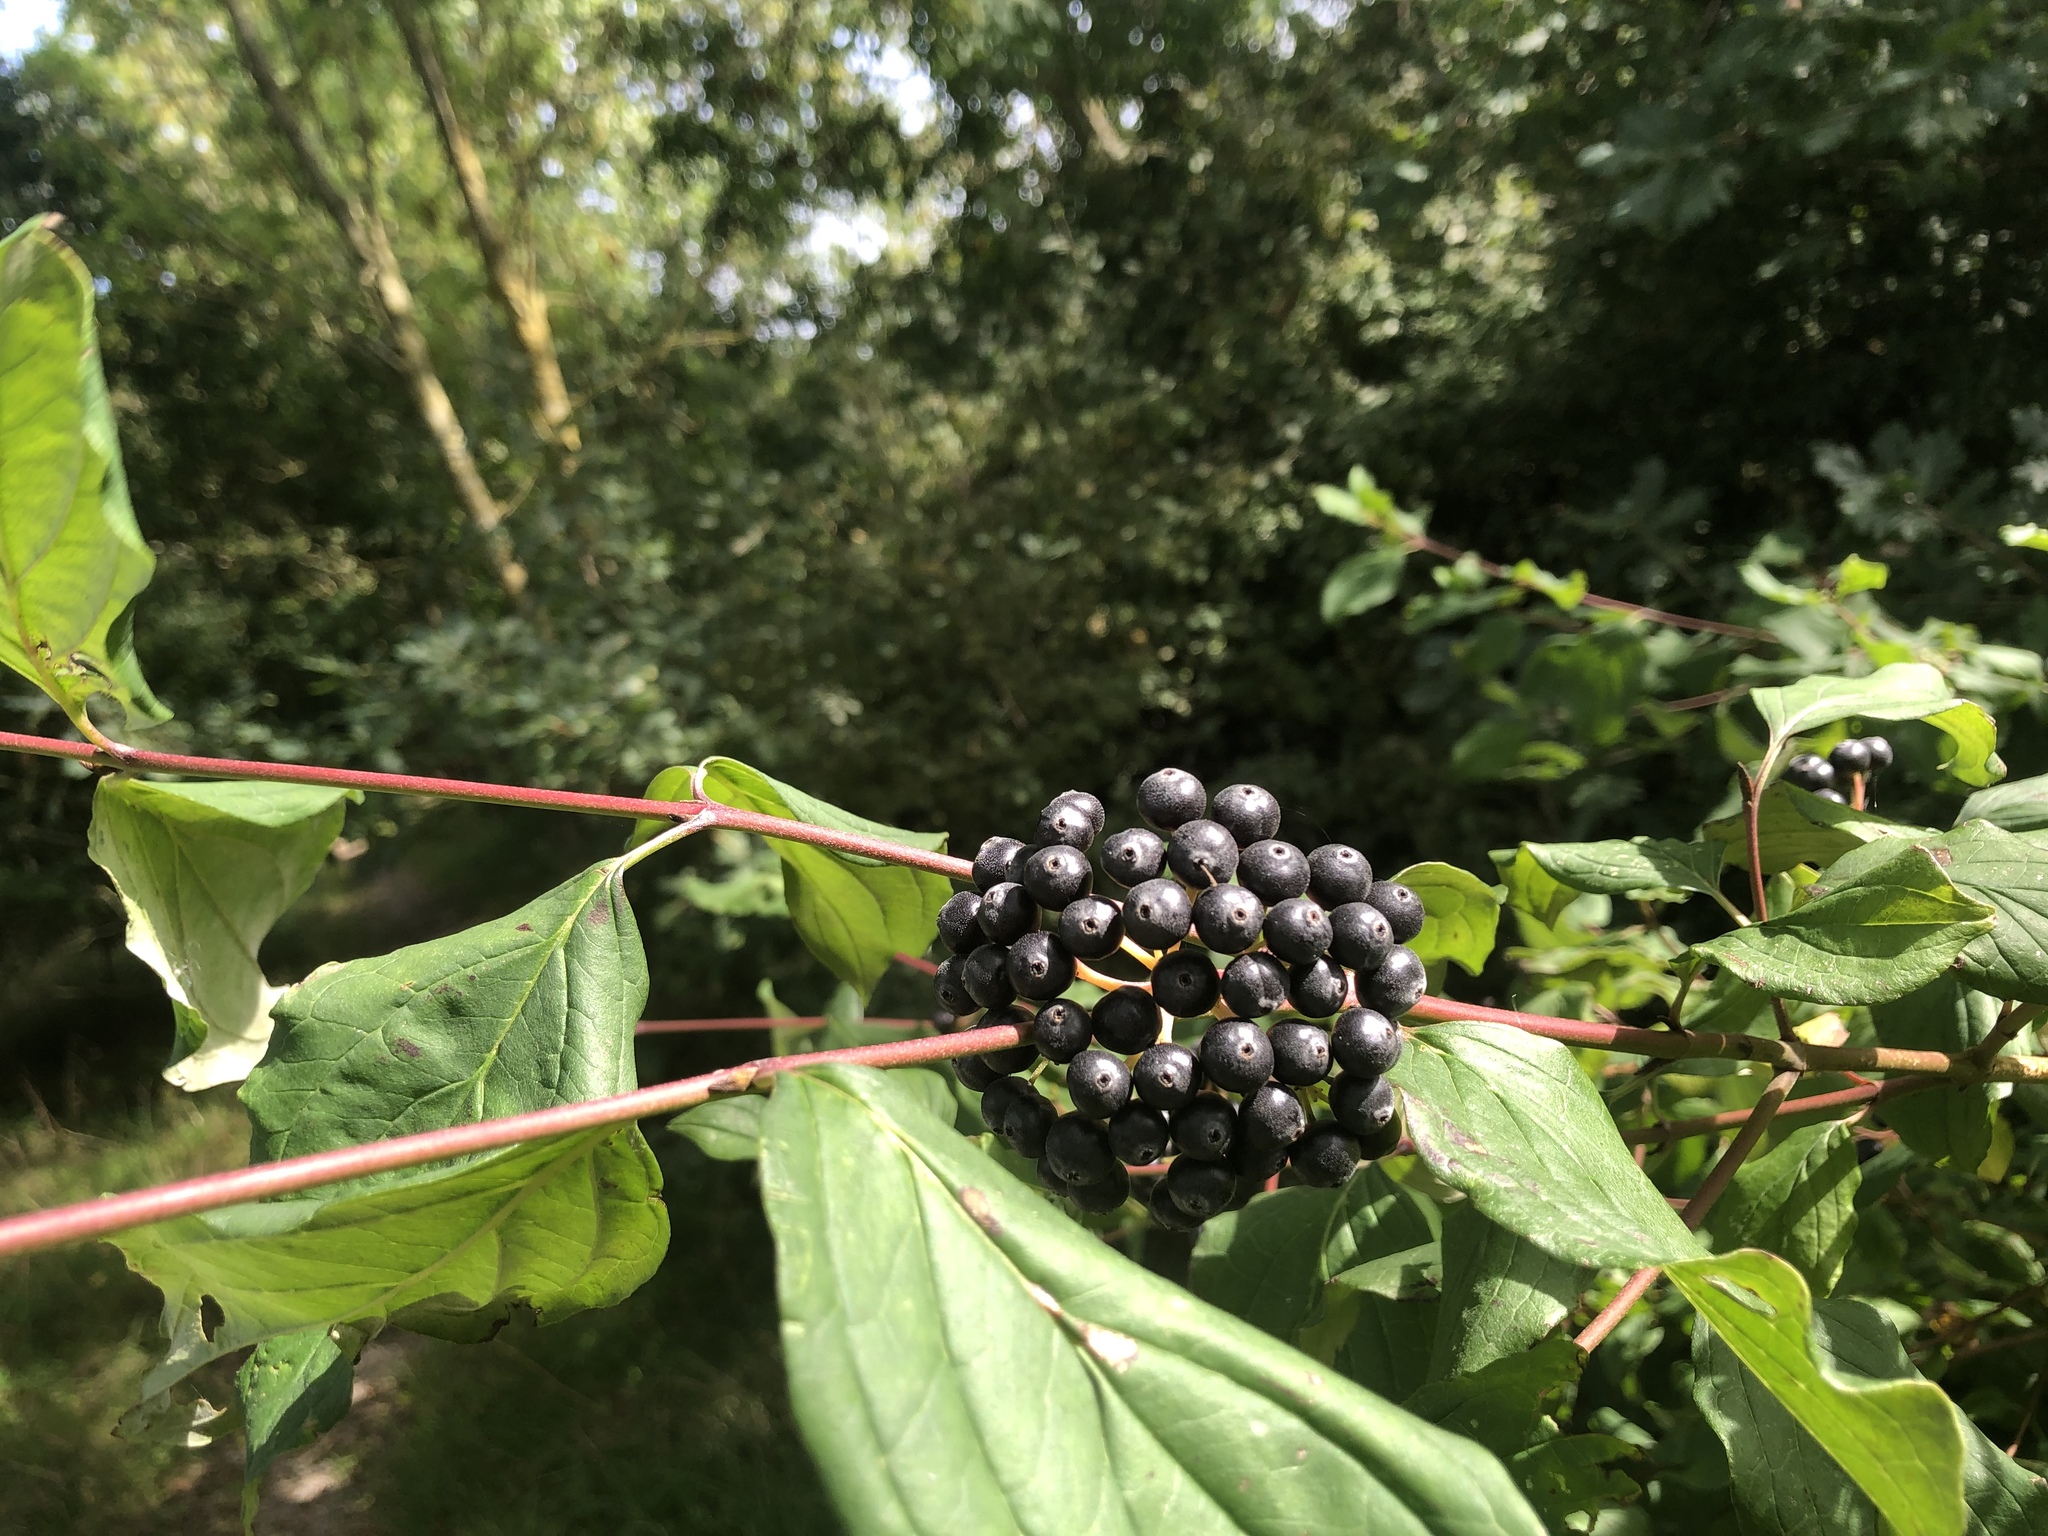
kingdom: Plantae
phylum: Tracheophyta
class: Magnoliopsida
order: Cornales
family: Cornaceae
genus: Cornus
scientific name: Cornus sanguinea
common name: Dogwood
